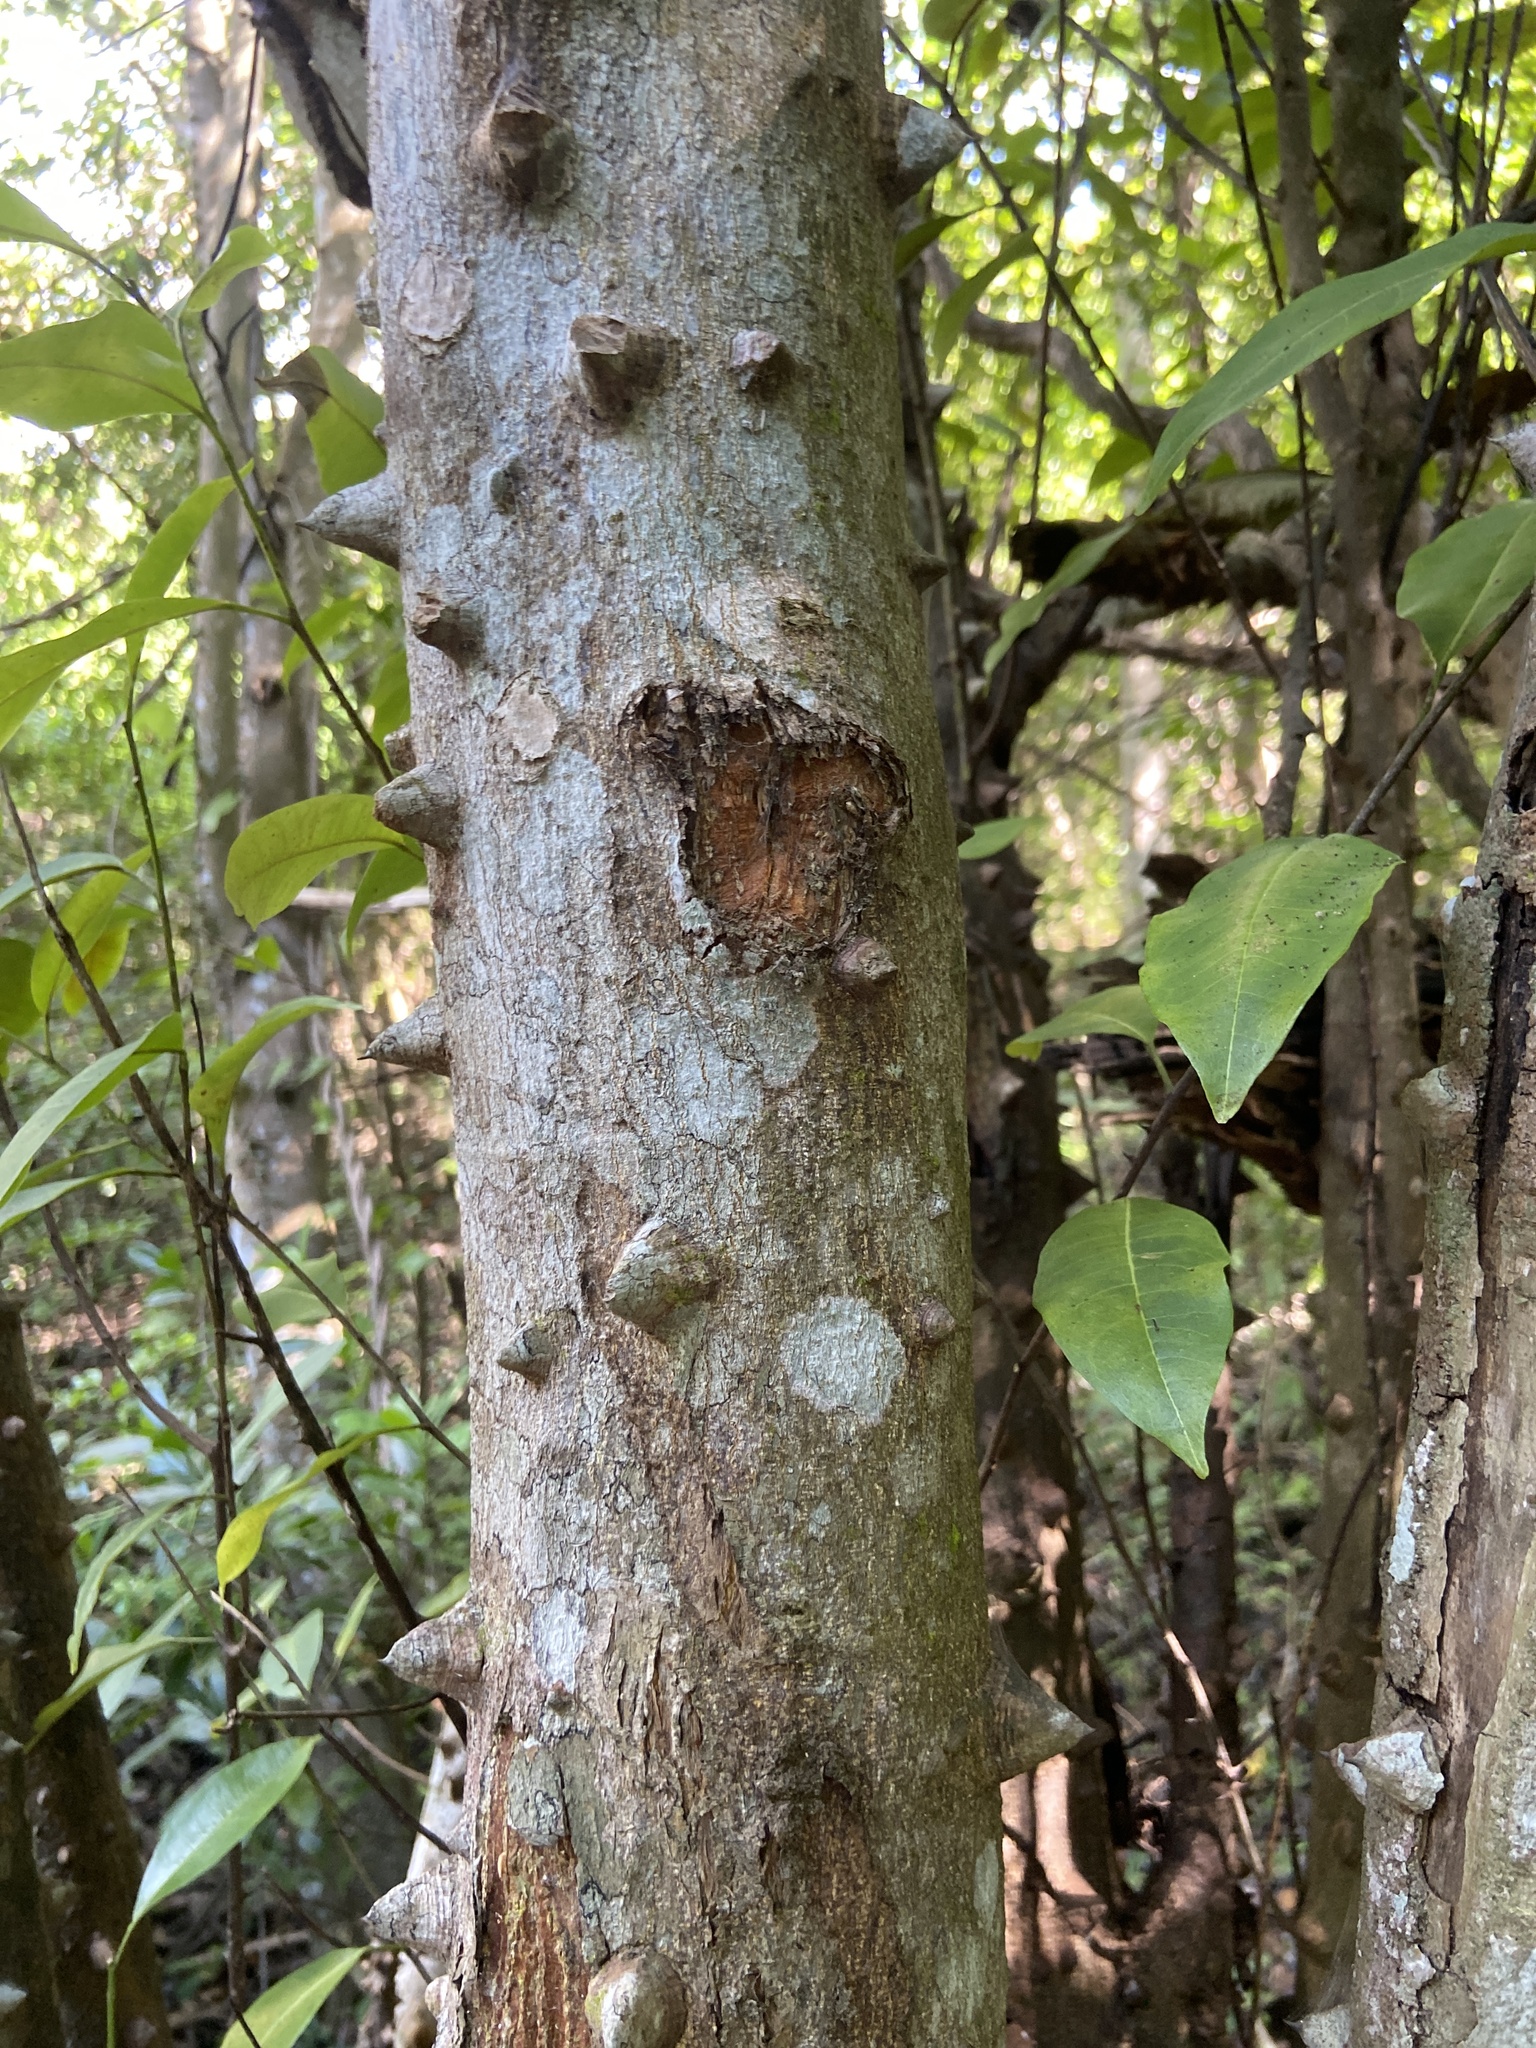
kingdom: Plantae
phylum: Tracheophyta
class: Magnoliopsida
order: Sapindales
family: Rutaceae
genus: Zanthoxylum
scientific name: Zanthoxylum schreberi
